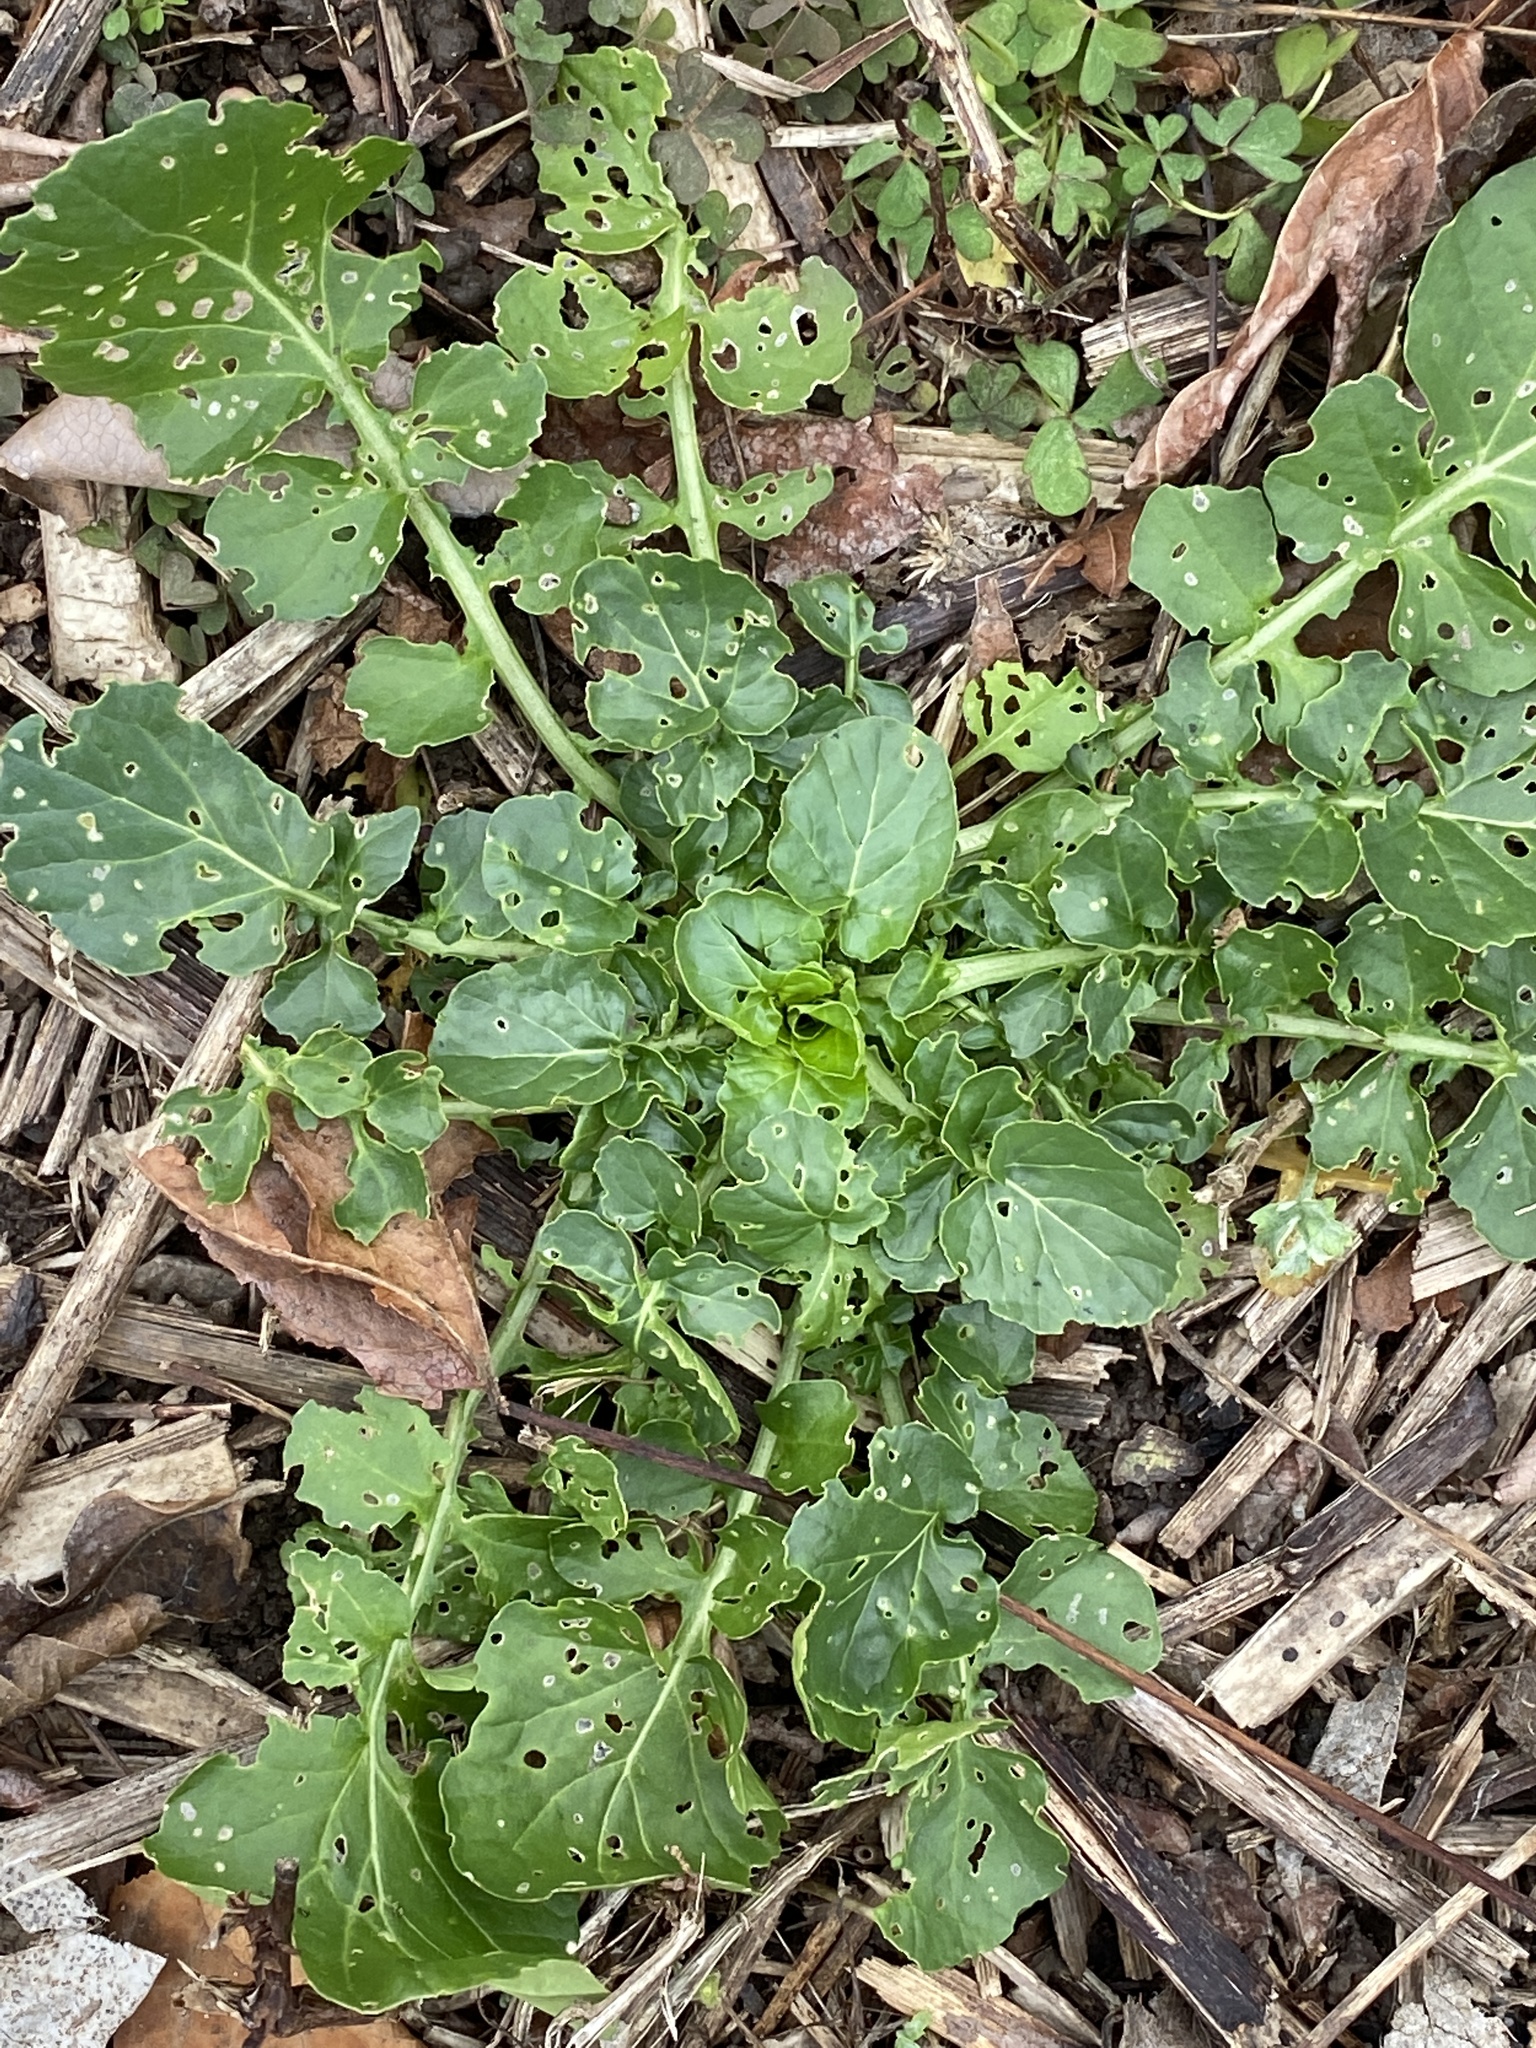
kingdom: Plantae
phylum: Tracheophyta
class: Magnoliopsida
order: Brassicales
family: Brassicaceae
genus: Barbarea
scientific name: Barbarea vulgaris
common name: Cressy-greens
